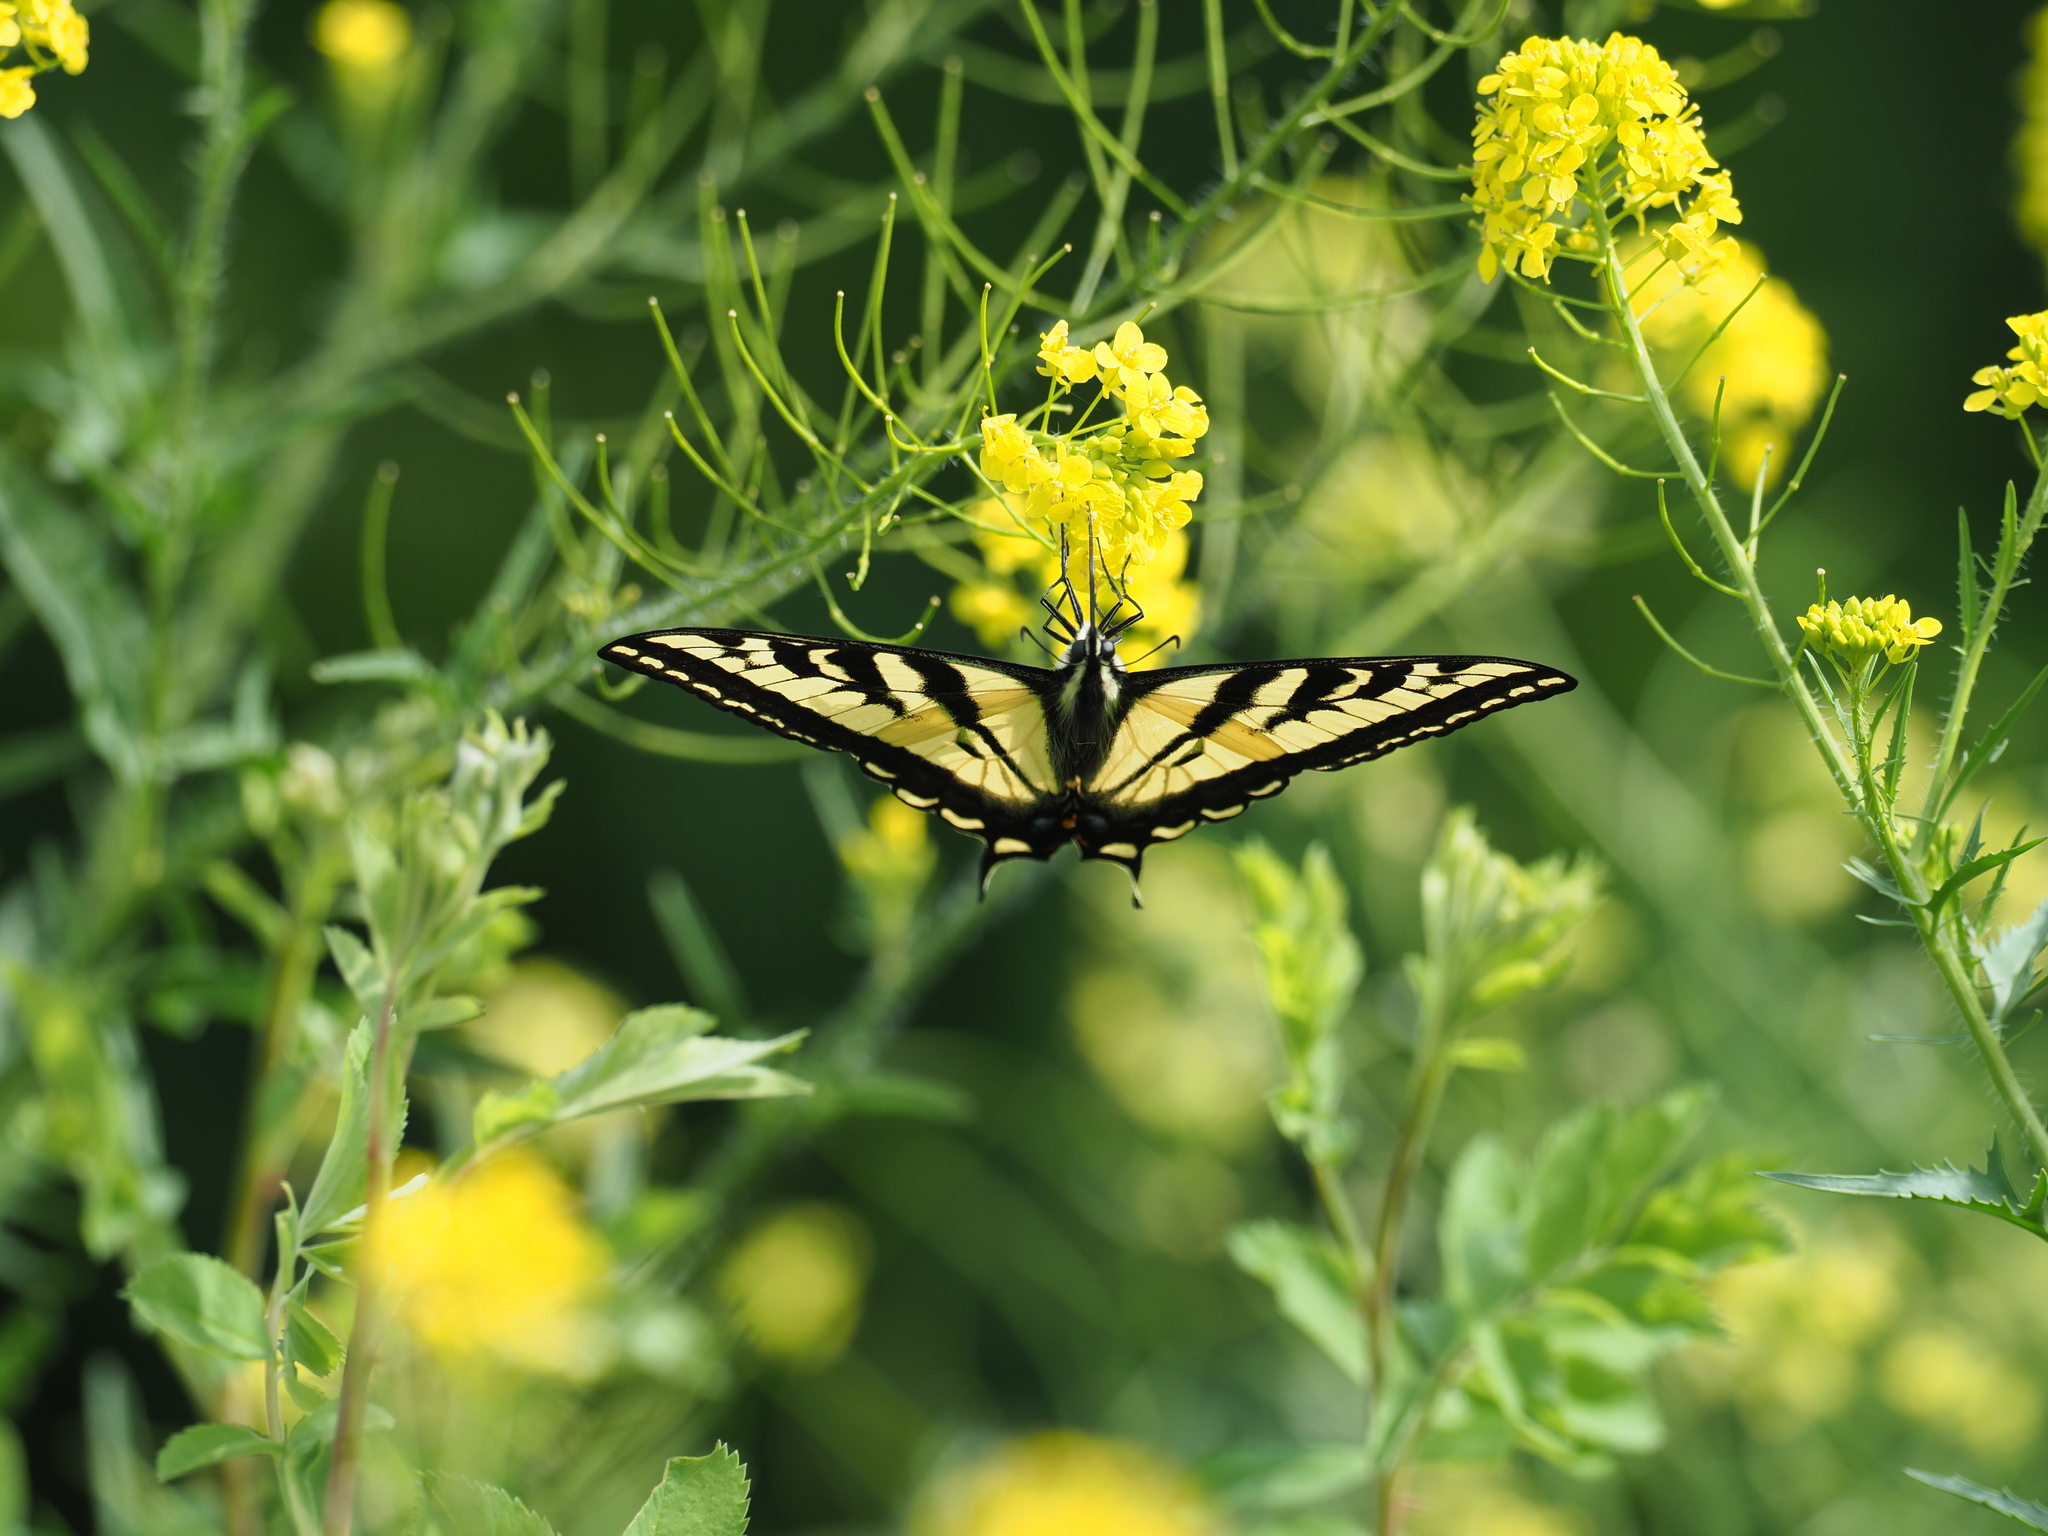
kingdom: Animalia
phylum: Arthropoda
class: Insecta
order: Lepidoptera
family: Papilionidae
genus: Papilio
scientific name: Papilio rutulus
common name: Western tiger swallowtail
